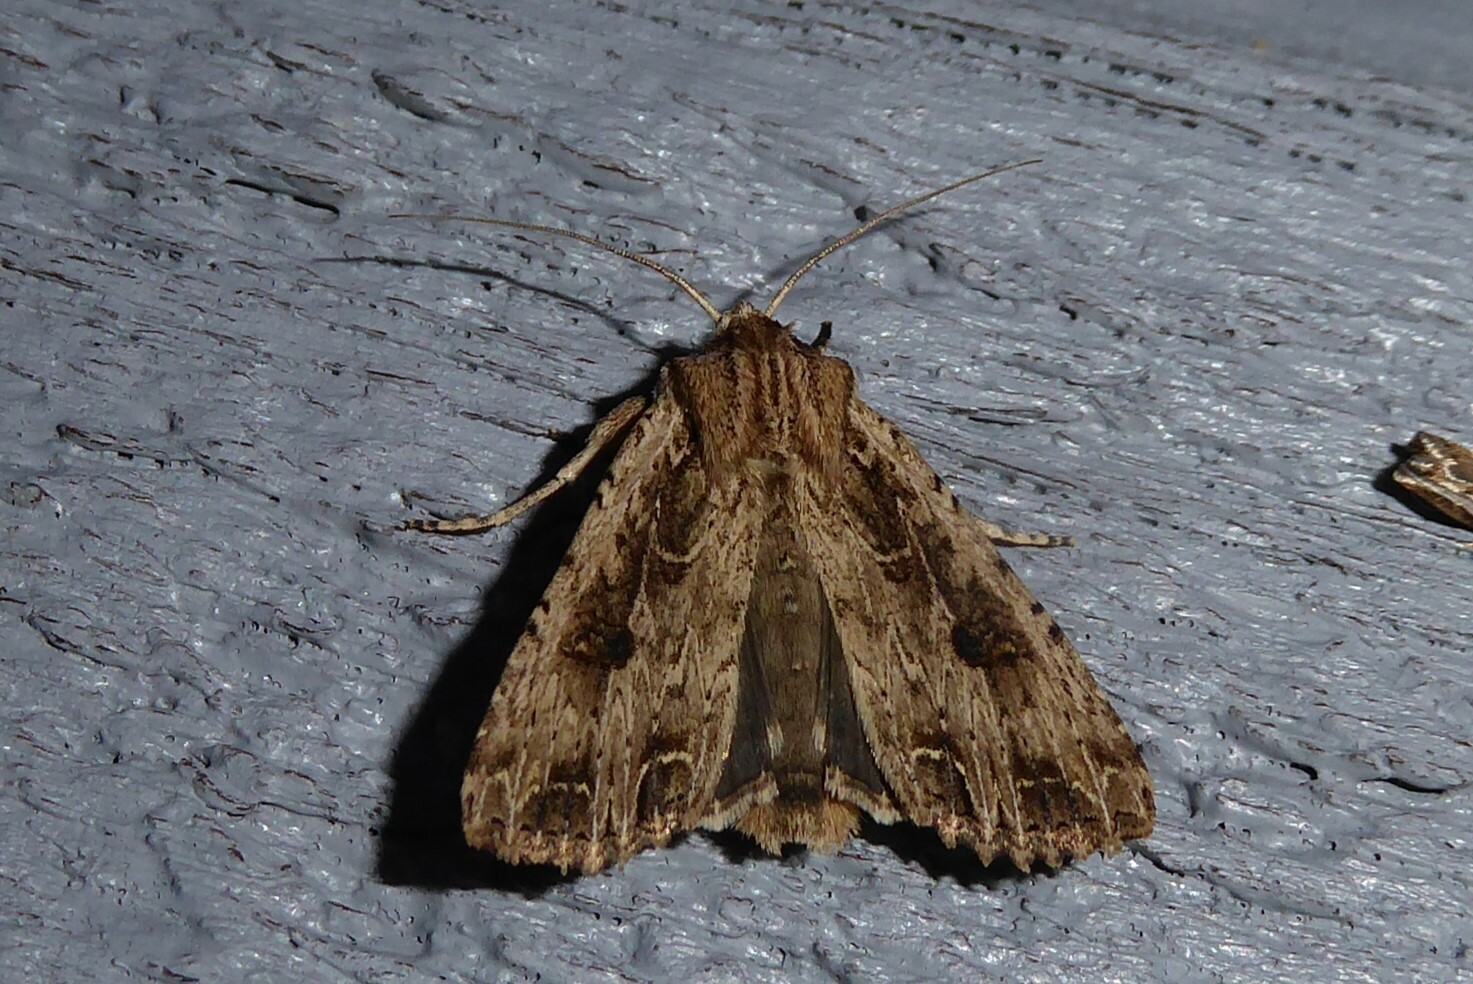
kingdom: Animalia
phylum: Arthropoda
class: Insecta
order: Lepidoptera
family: Noctuidae
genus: Ichneutica
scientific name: Ichneutica lignana
